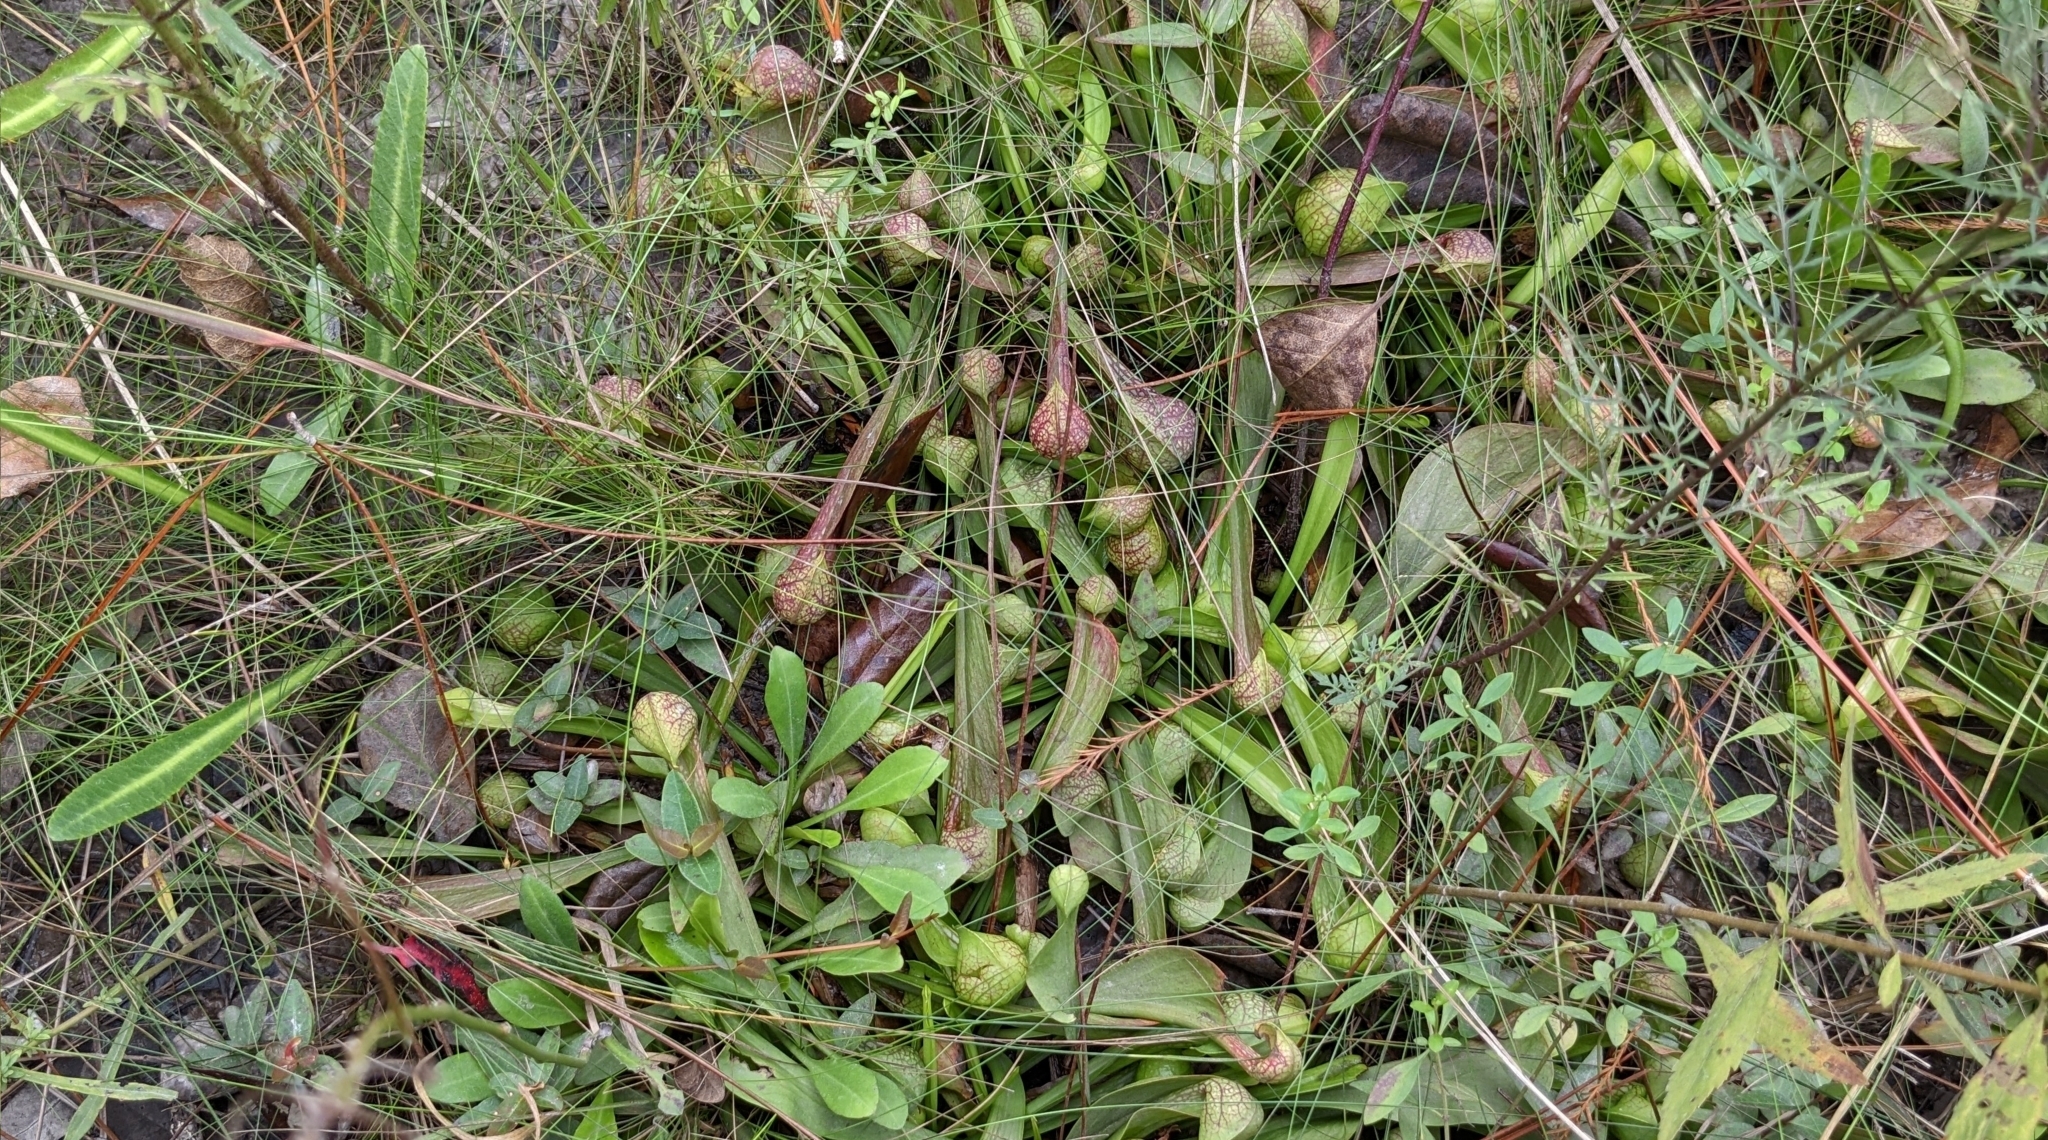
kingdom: Plantae
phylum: Tracheophyta
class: Magnoliopsida
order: Ericales
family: Sarraceniaceae
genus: Sarracenia
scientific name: Sarracenia psittacina
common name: Parrot pitcherplant
